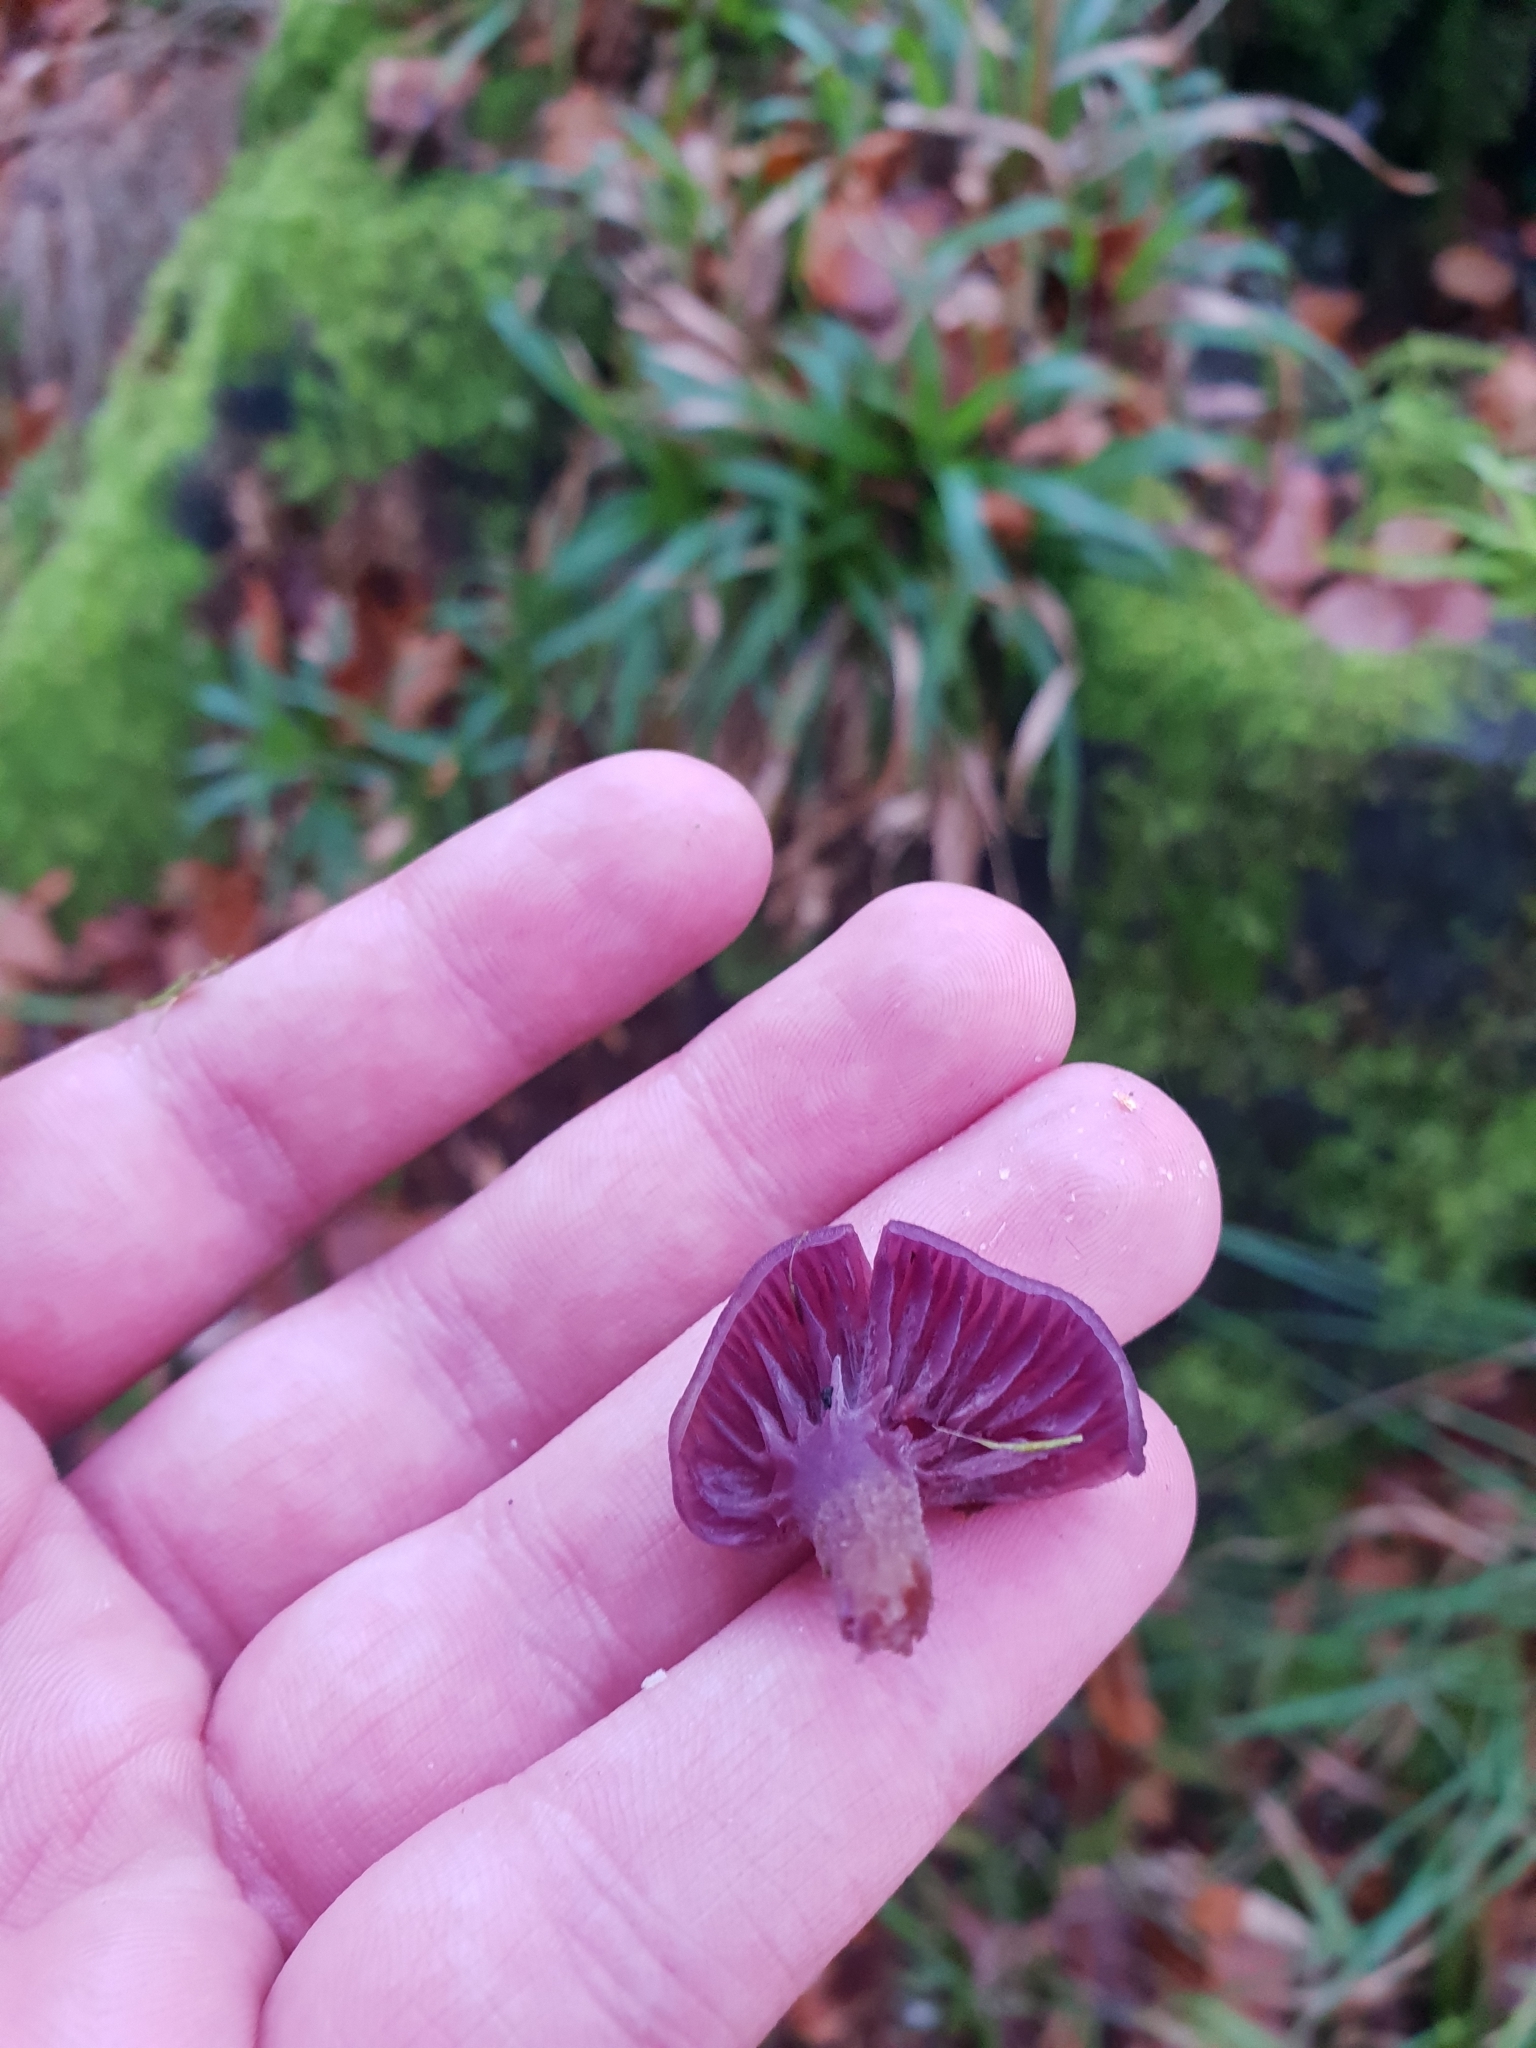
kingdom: Fungi
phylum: Basidiomycota
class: Agaricomycetes
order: Agaricales
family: Hydnangiaceae
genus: Laccaria
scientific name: Laccaria amethystina
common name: Amethyst deceiver
